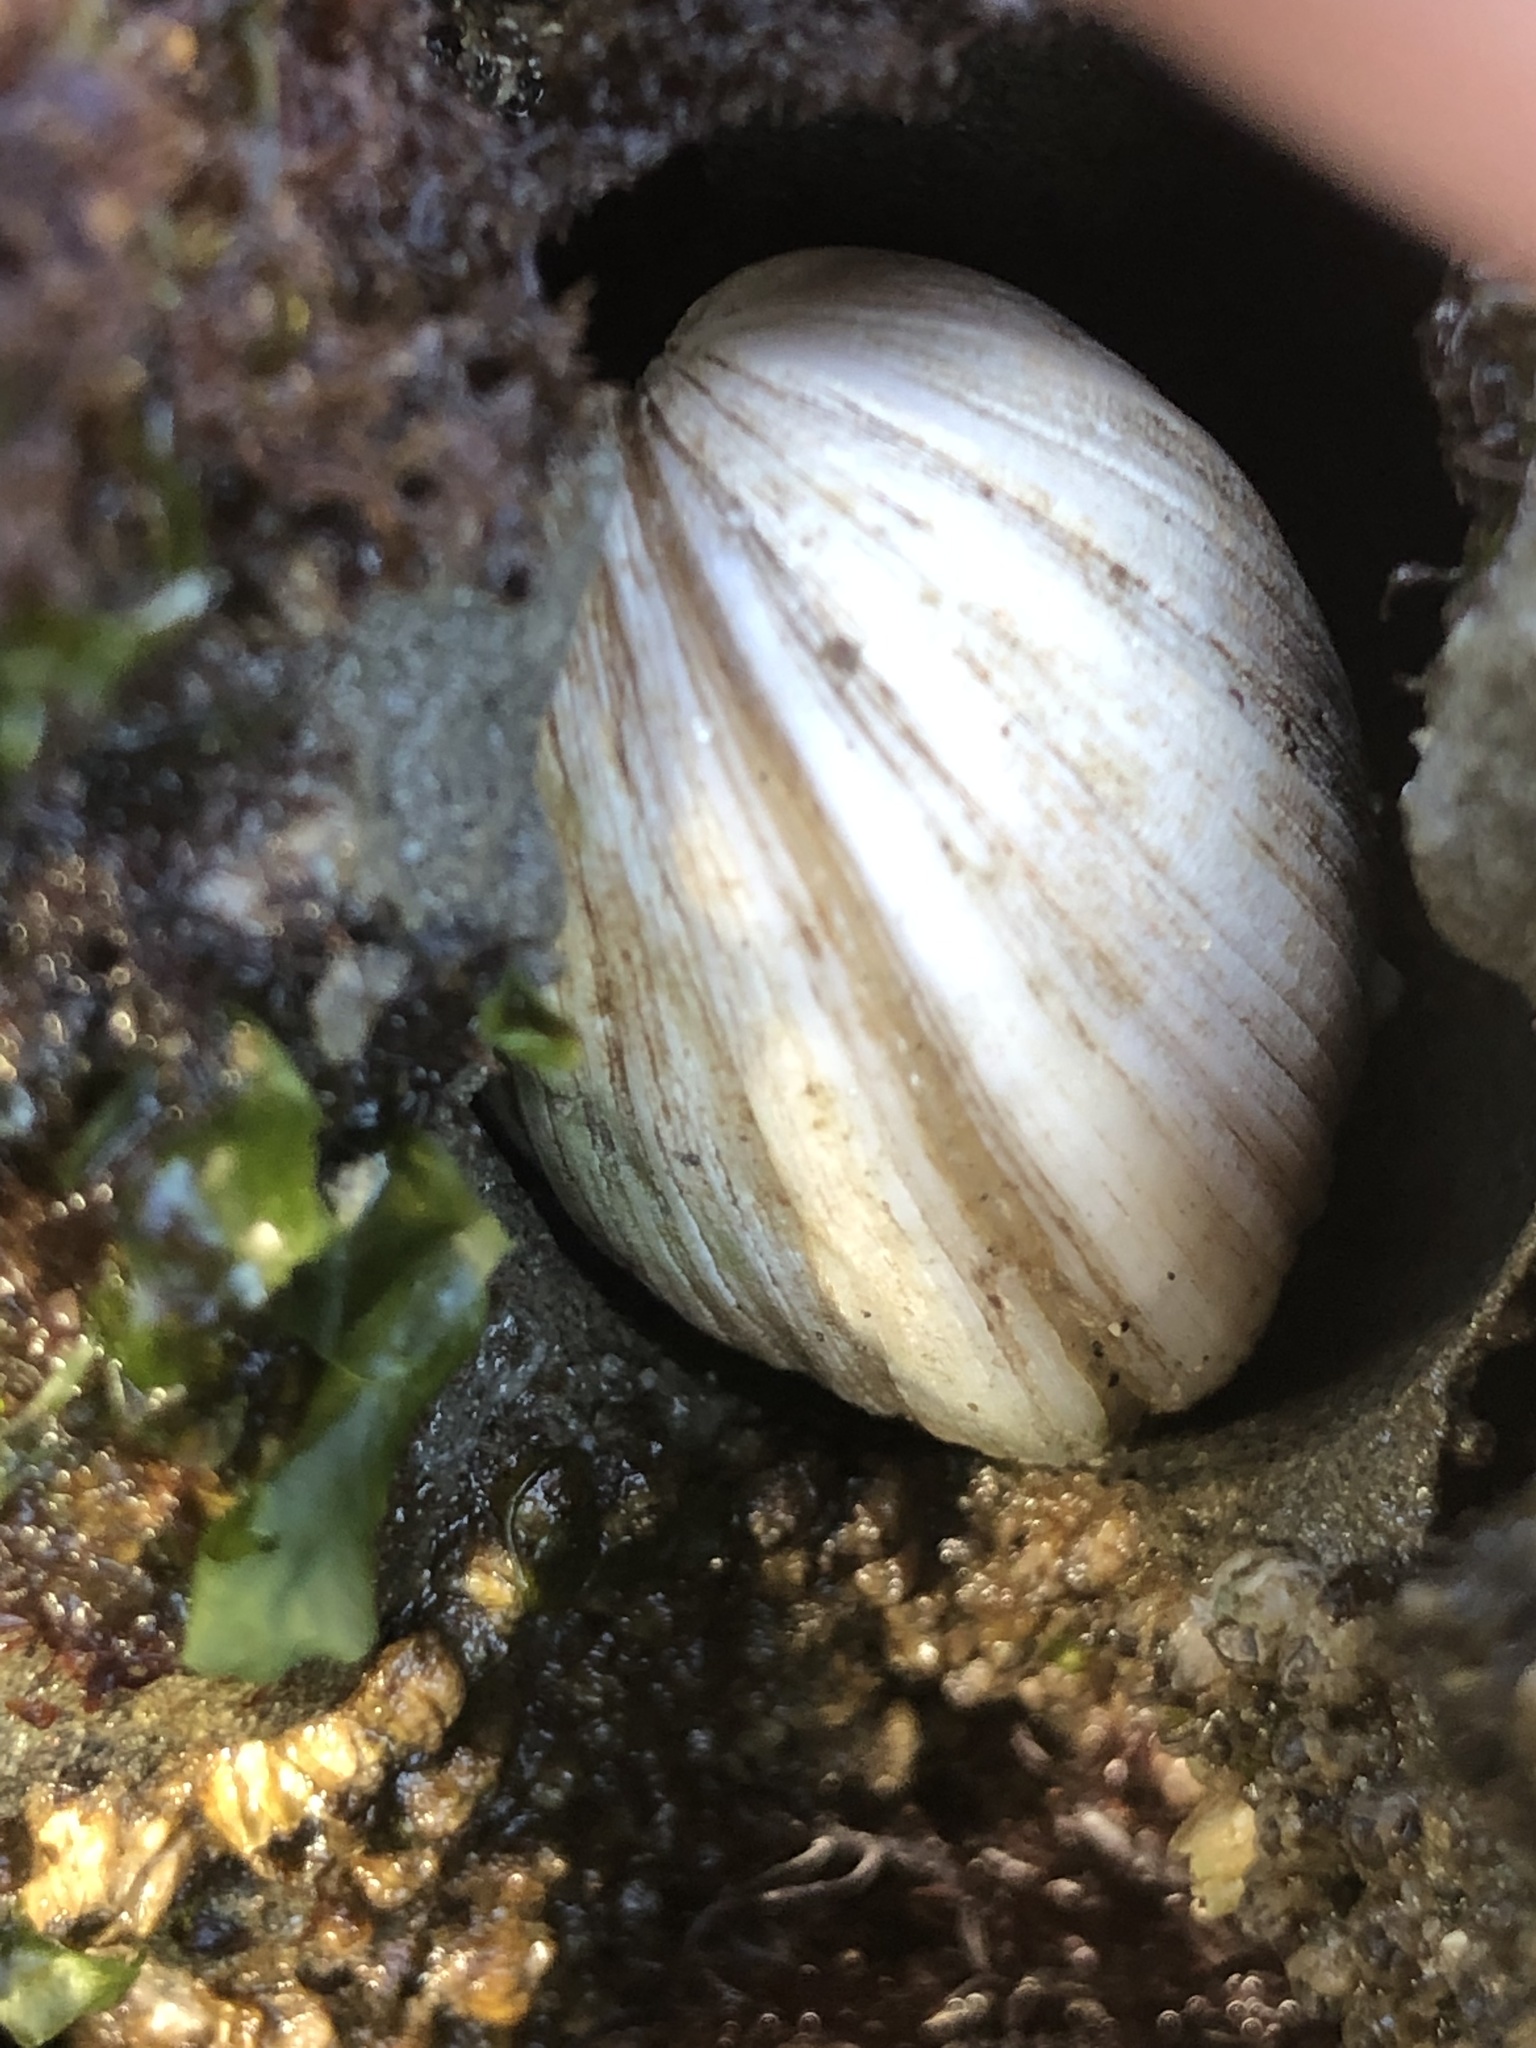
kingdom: Animalia
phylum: Mollusca
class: Bivalvia
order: Venerida
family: Veneridae
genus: Petricola
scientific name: Petricola carditoides
